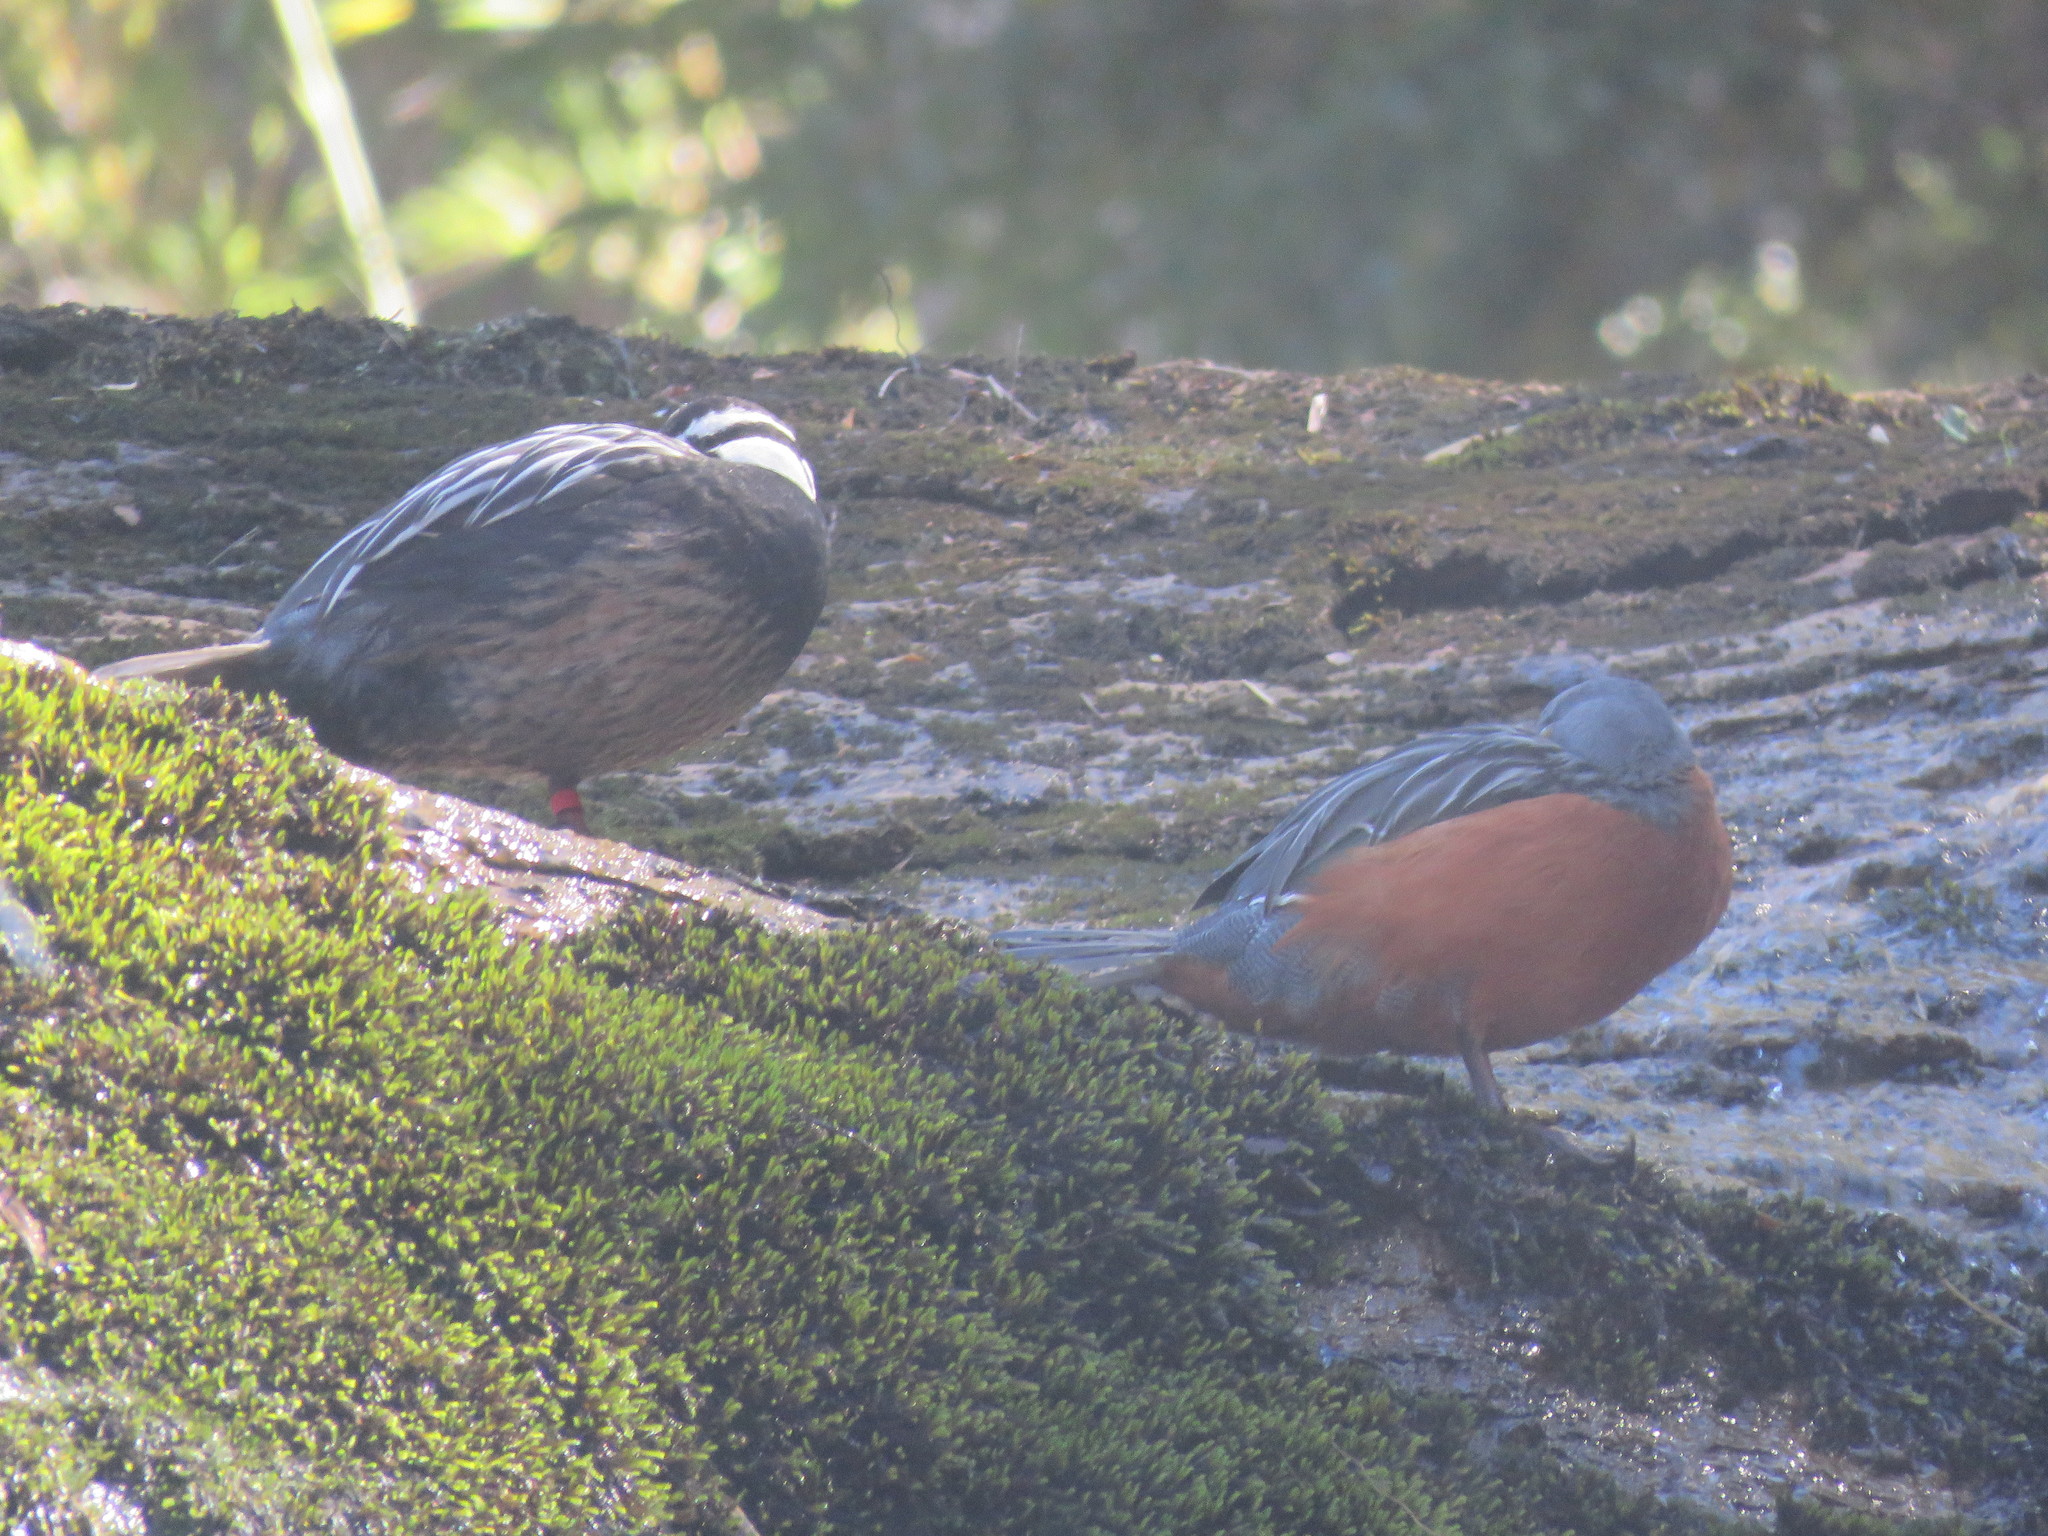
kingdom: Animalia
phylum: Chordata
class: Aves
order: Anseriformes
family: Anatidae
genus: Merganetta
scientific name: Merganetta armata
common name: Torrent duck
